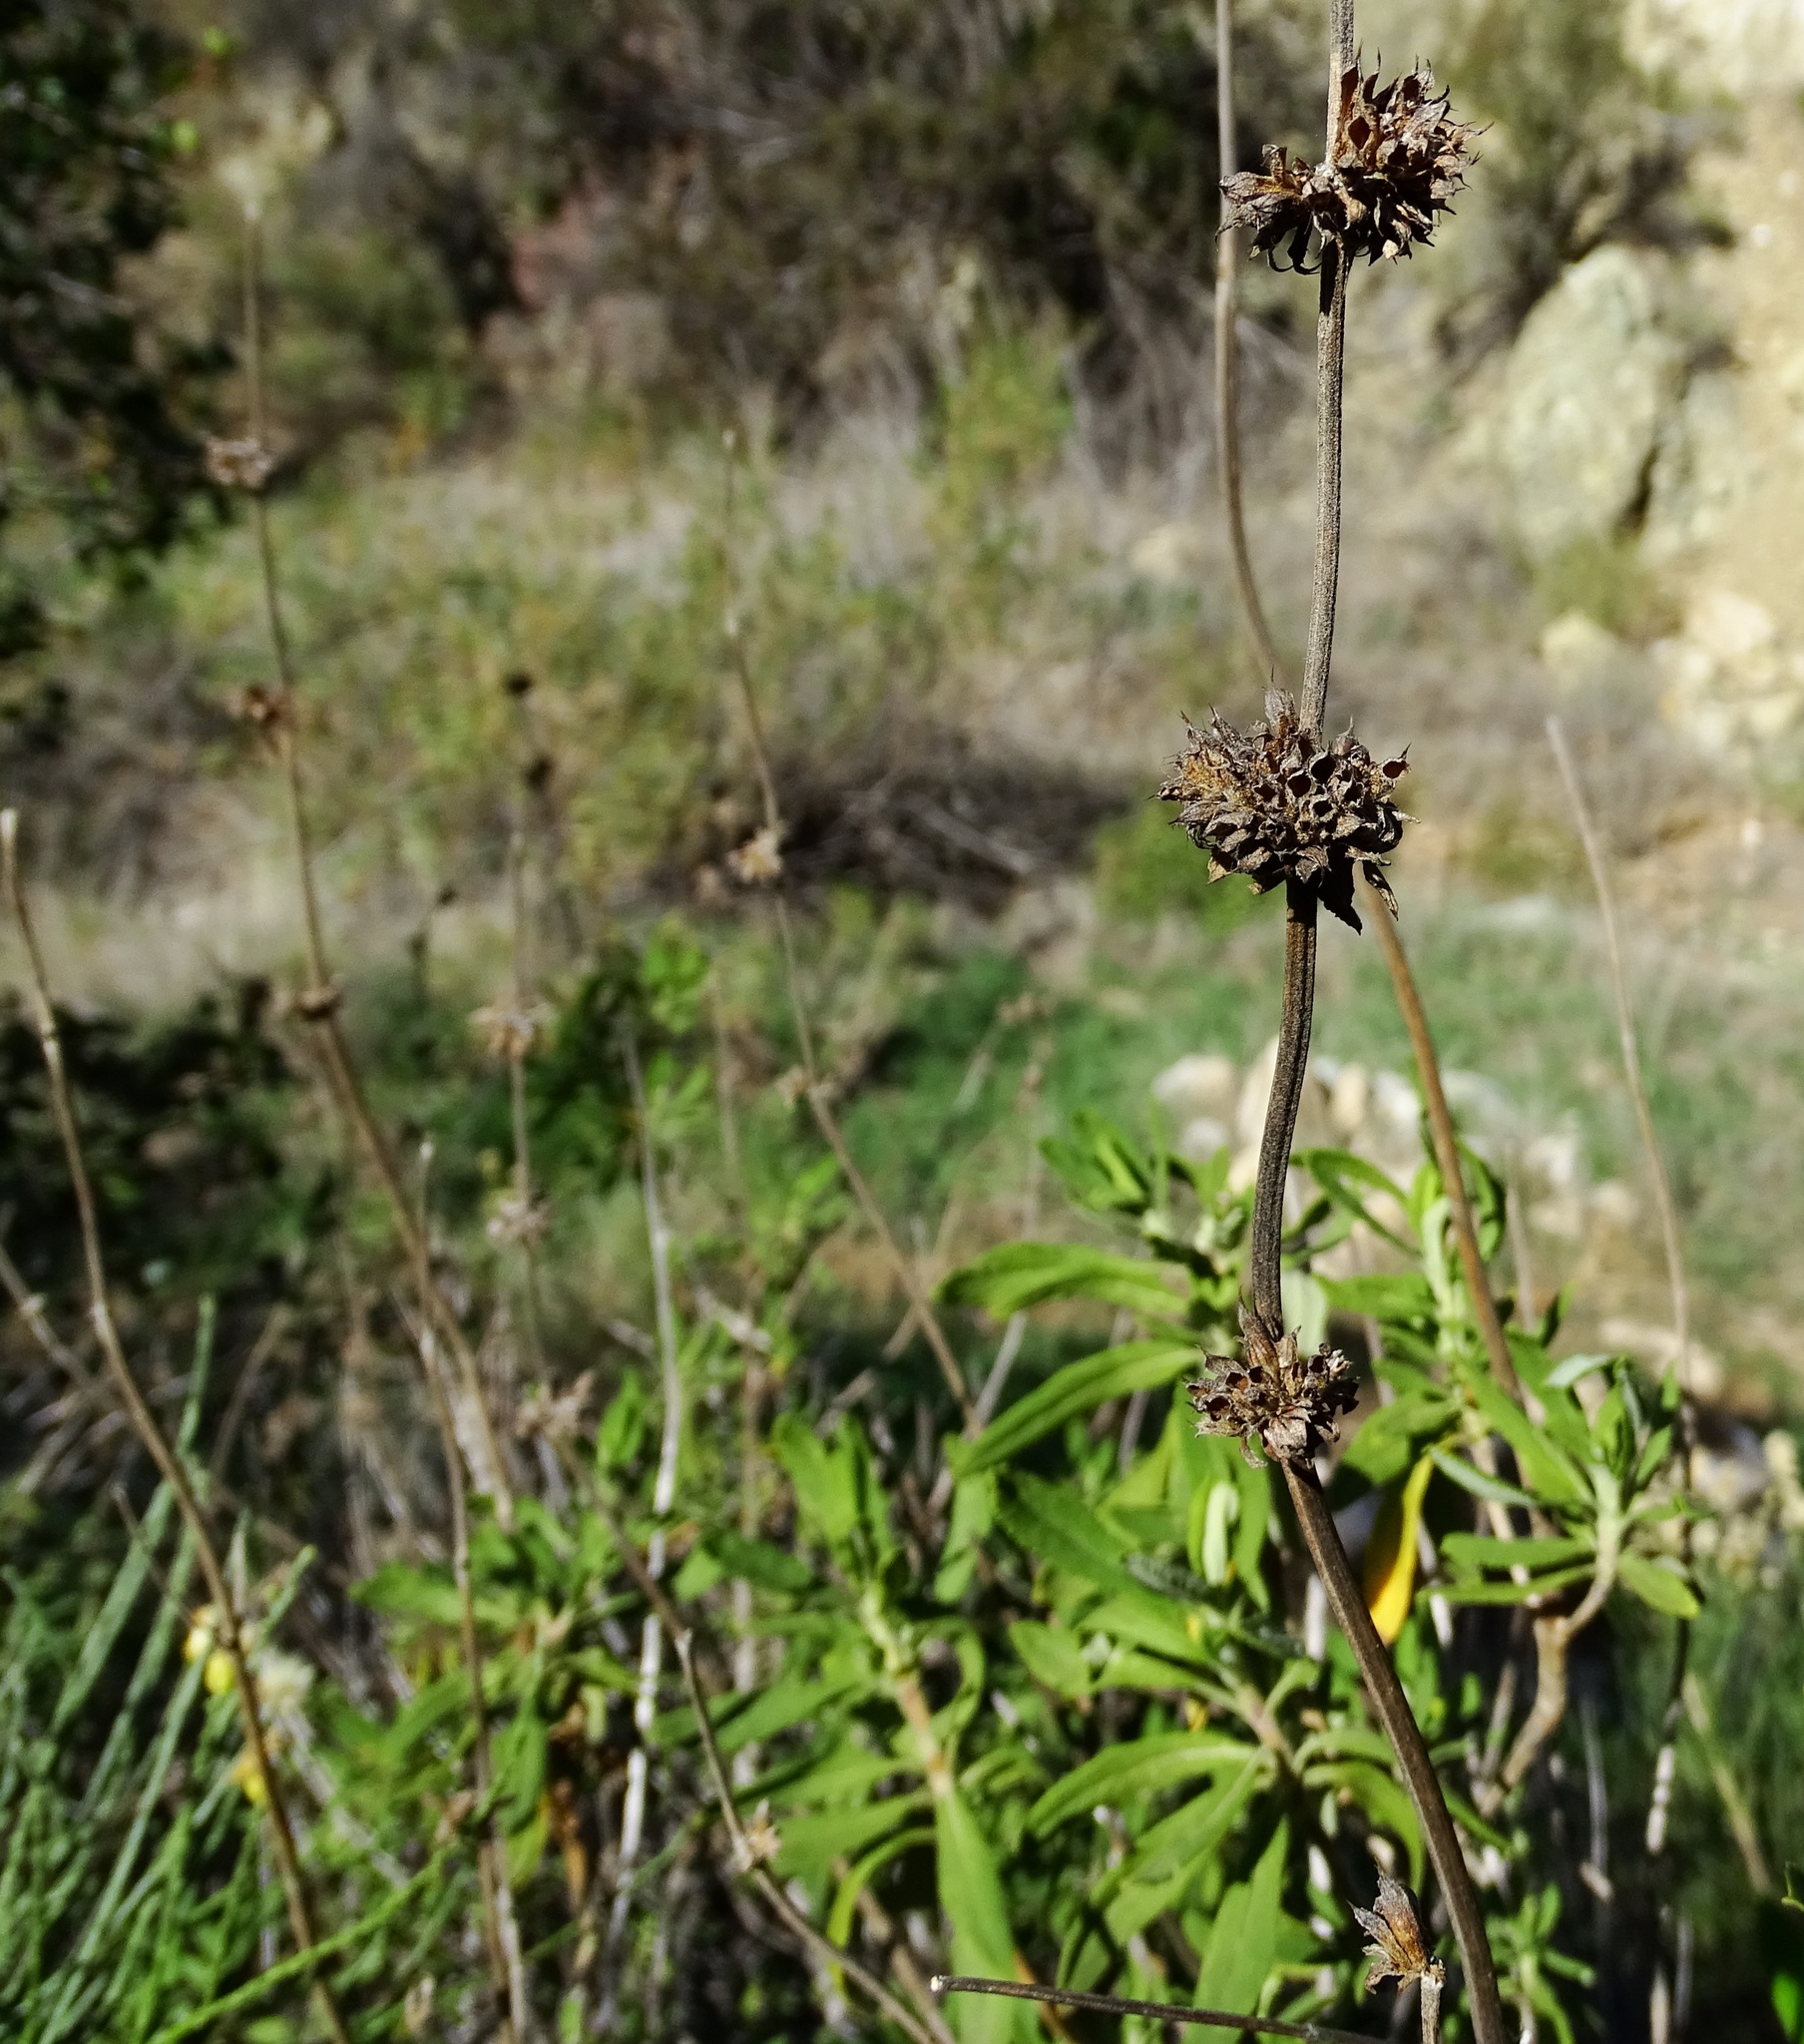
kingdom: Plantae
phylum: Tracheophyta
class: Magnoliopsida
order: Lamiales
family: Lamiaceae
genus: Salvia
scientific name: Salvia mellifera
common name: Black sage
